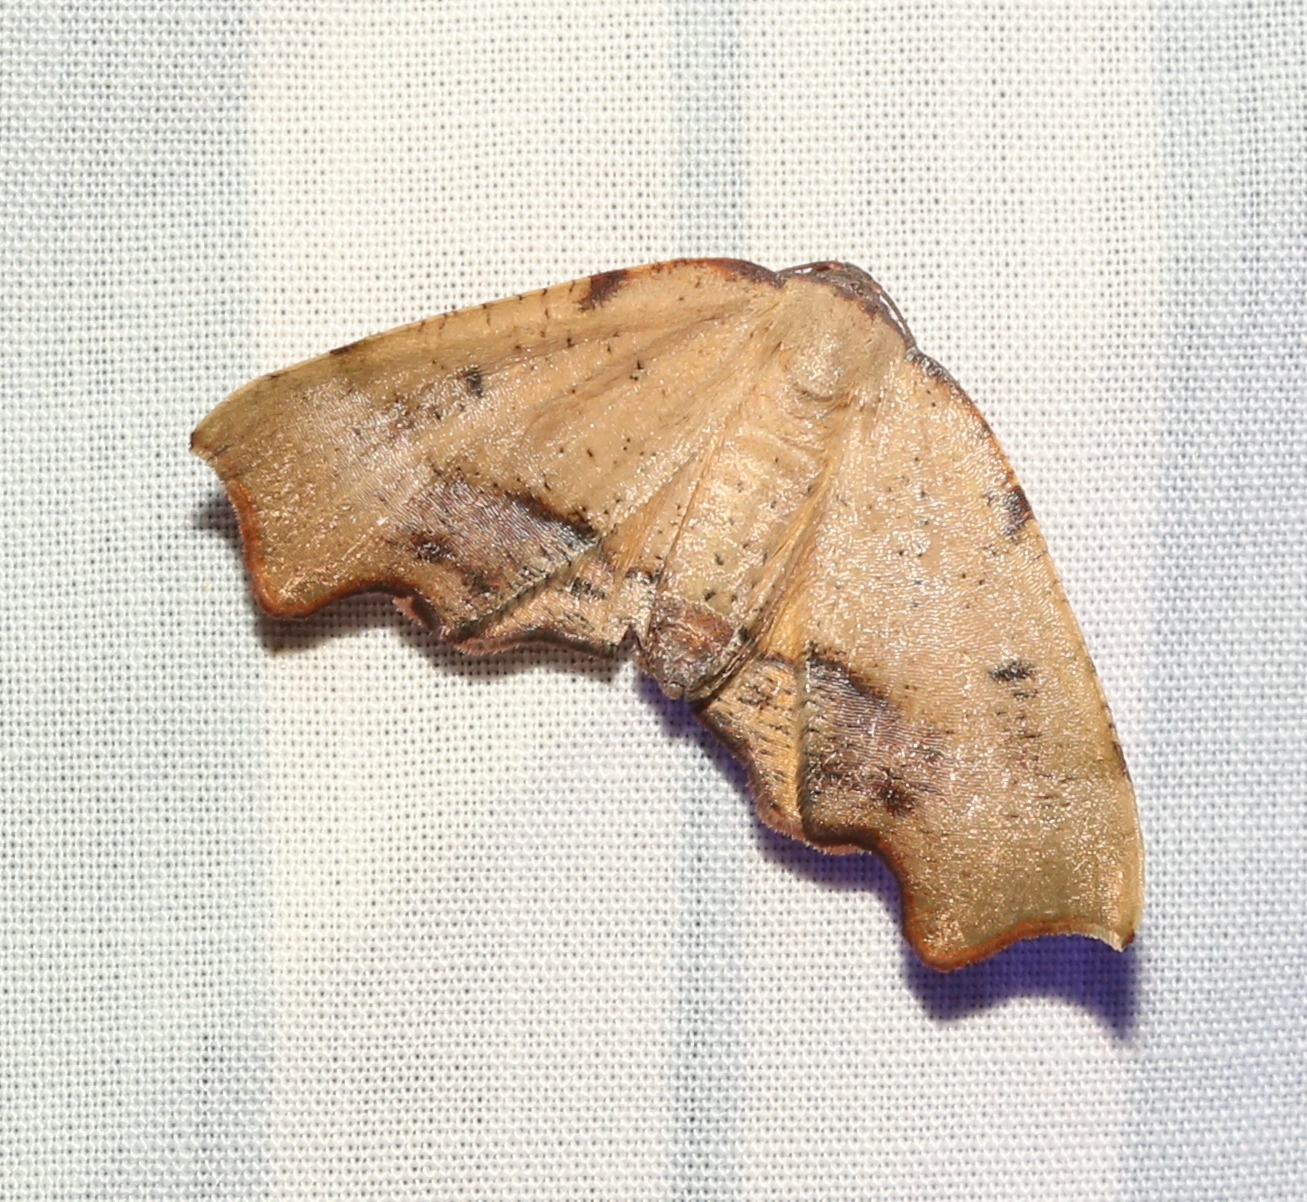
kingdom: Animalia
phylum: Arthropoda
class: Insecta
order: Lepidoptera
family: Geometridae
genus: Plagodis
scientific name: Plagodis fervidaria
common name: Fervid plagodis
